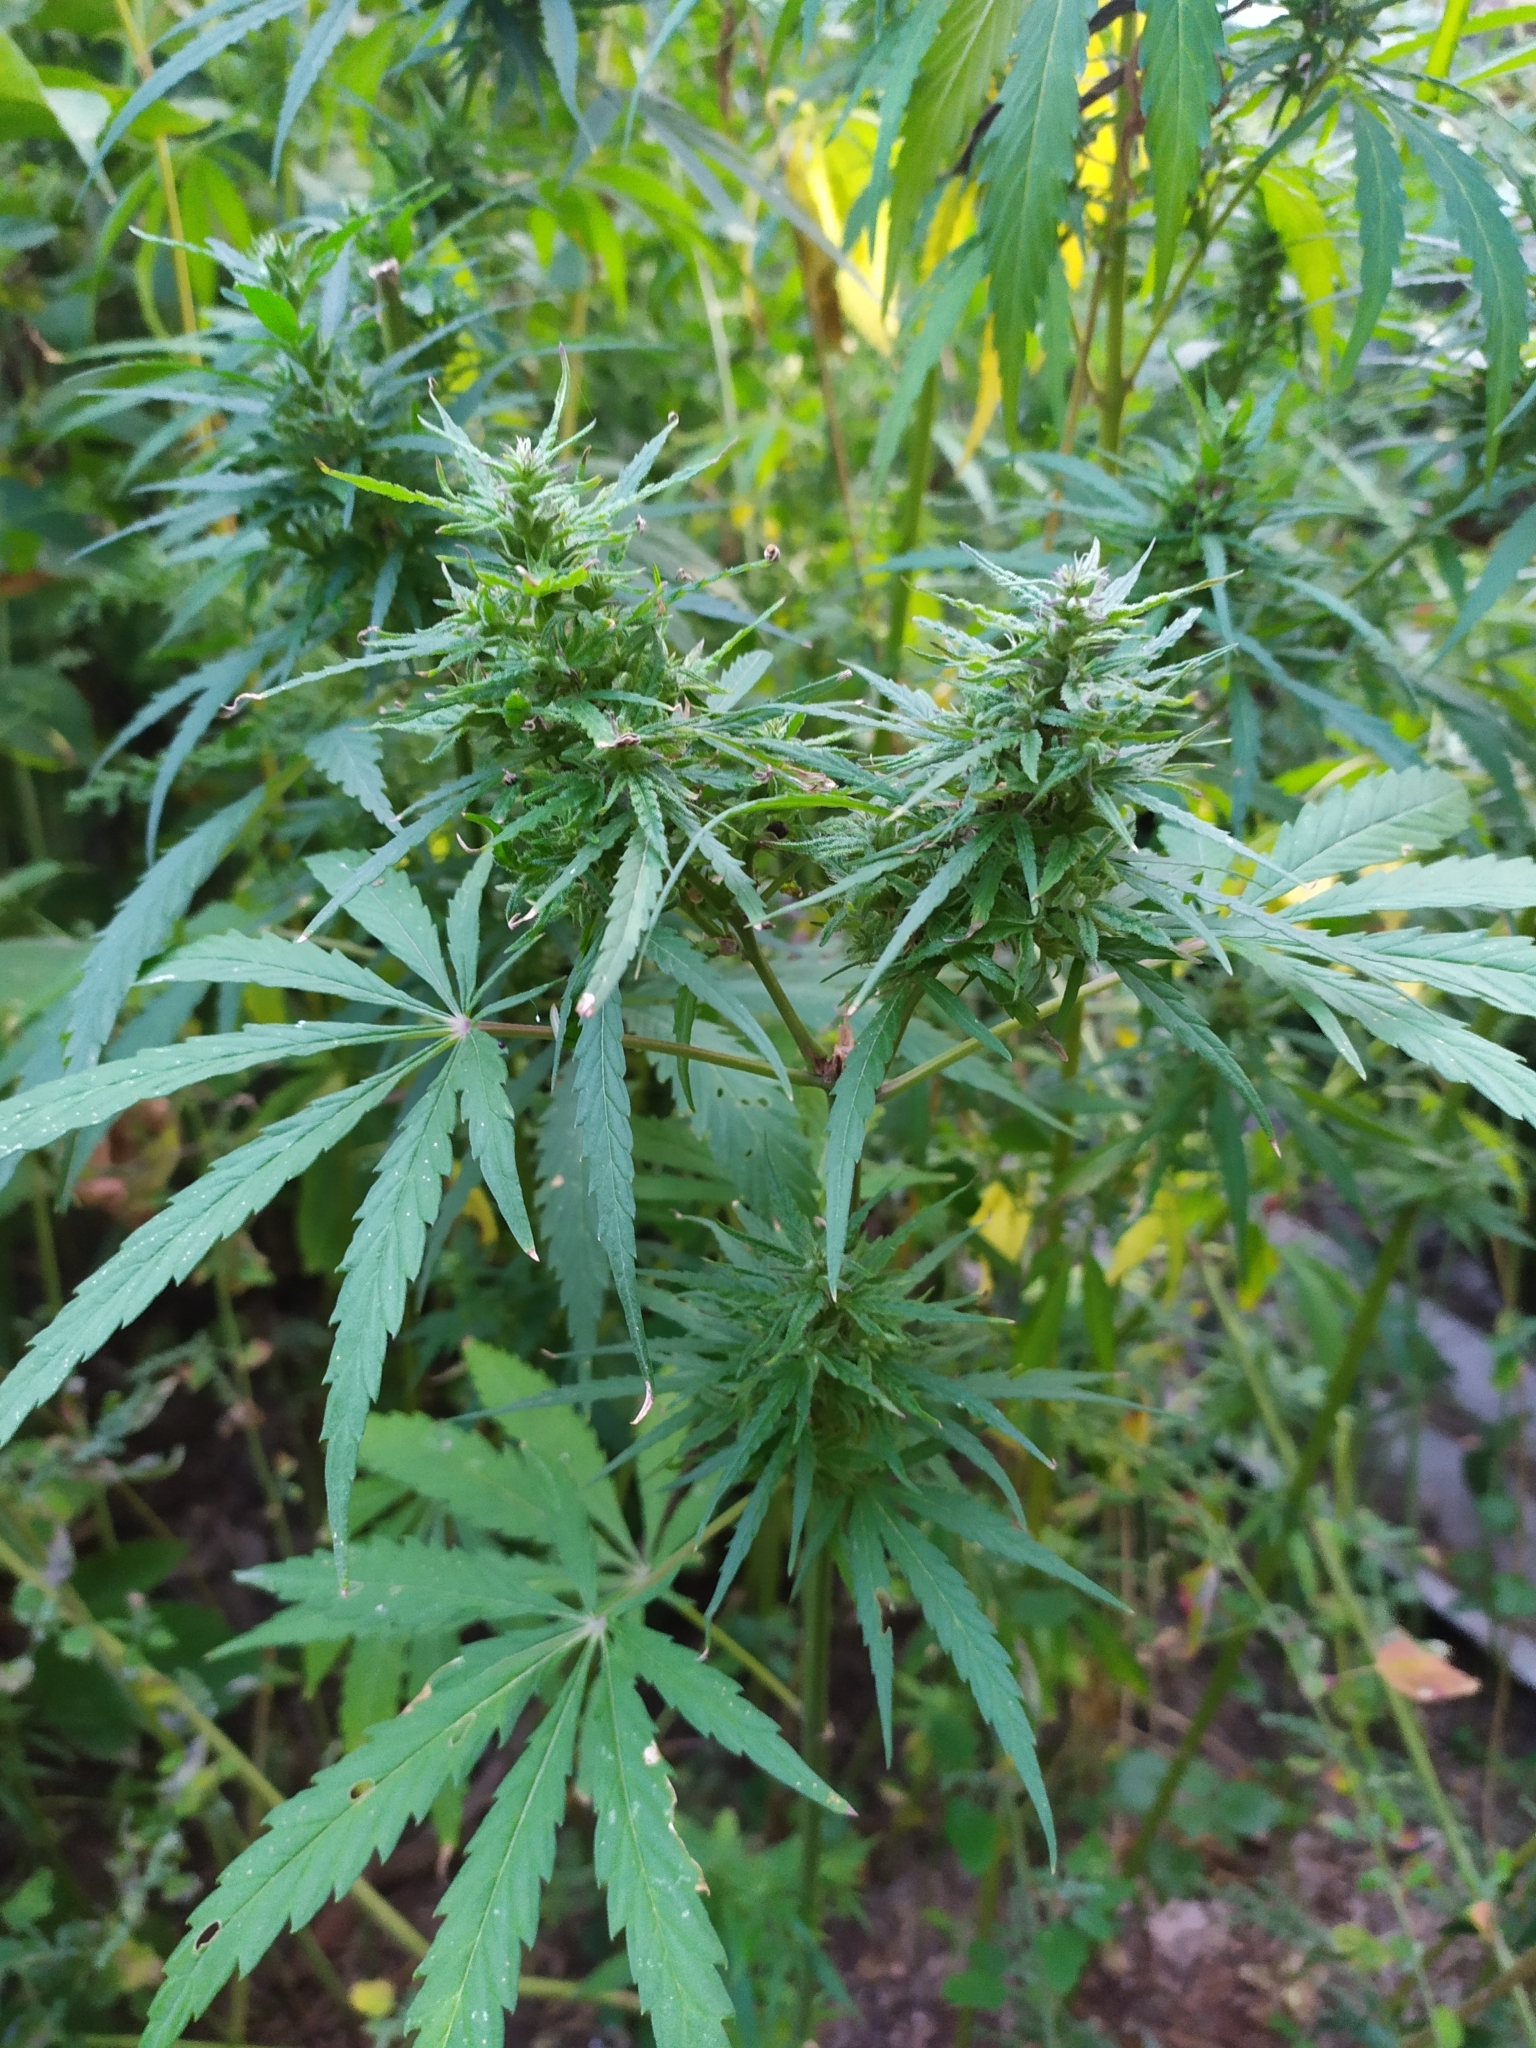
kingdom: Plantae
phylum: Tracheophyta
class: Magnoliopsida
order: Rosales
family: Cannabaceae
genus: Cannabis
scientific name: Cannabis sativa
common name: Hemp
